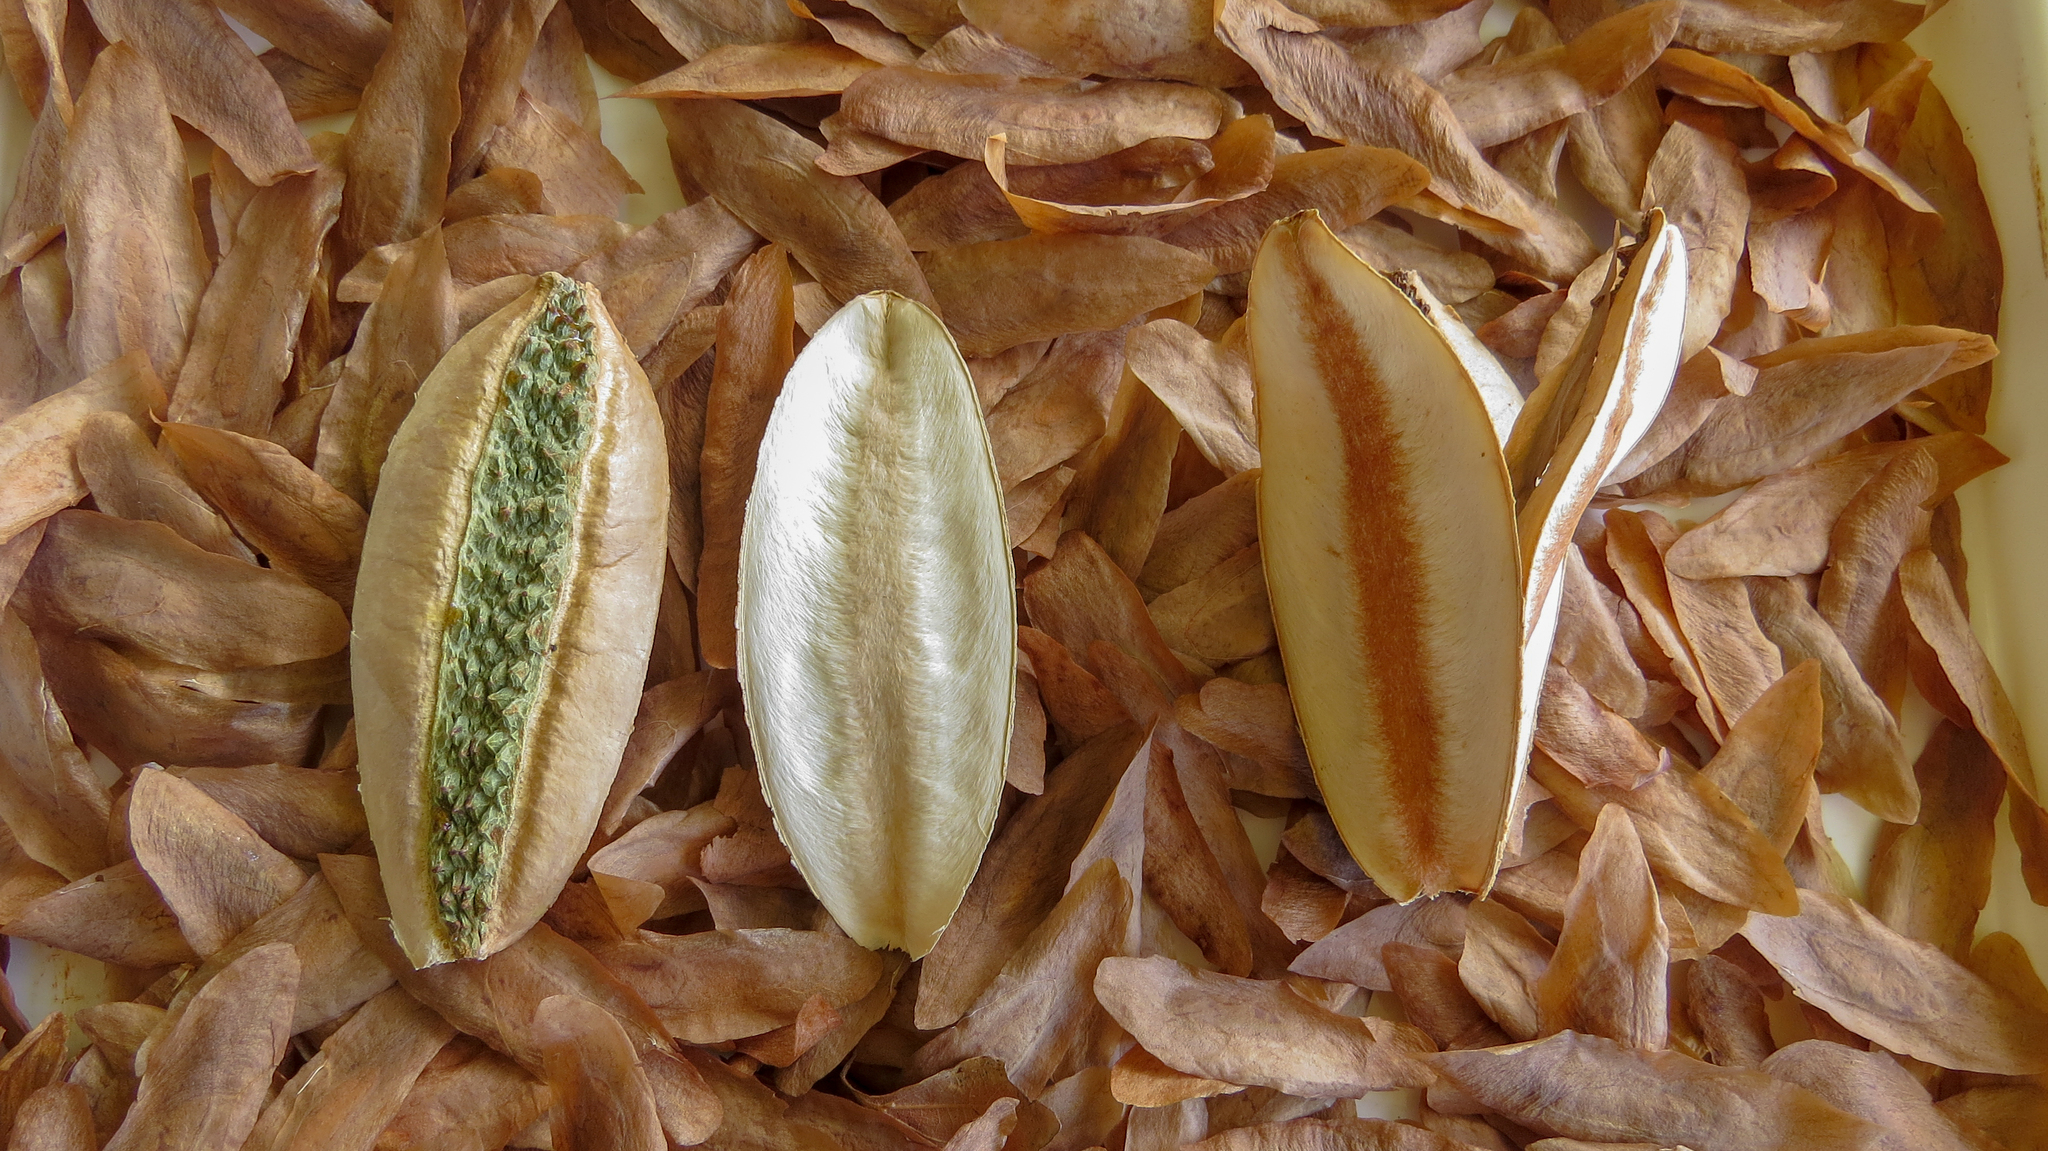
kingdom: Plantae
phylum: Tracheophyta
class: Magnoliopsida
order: Sapindales
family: Rutaceae
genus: Flindersia
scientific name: Flindersia schottiana
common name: Silver ash
